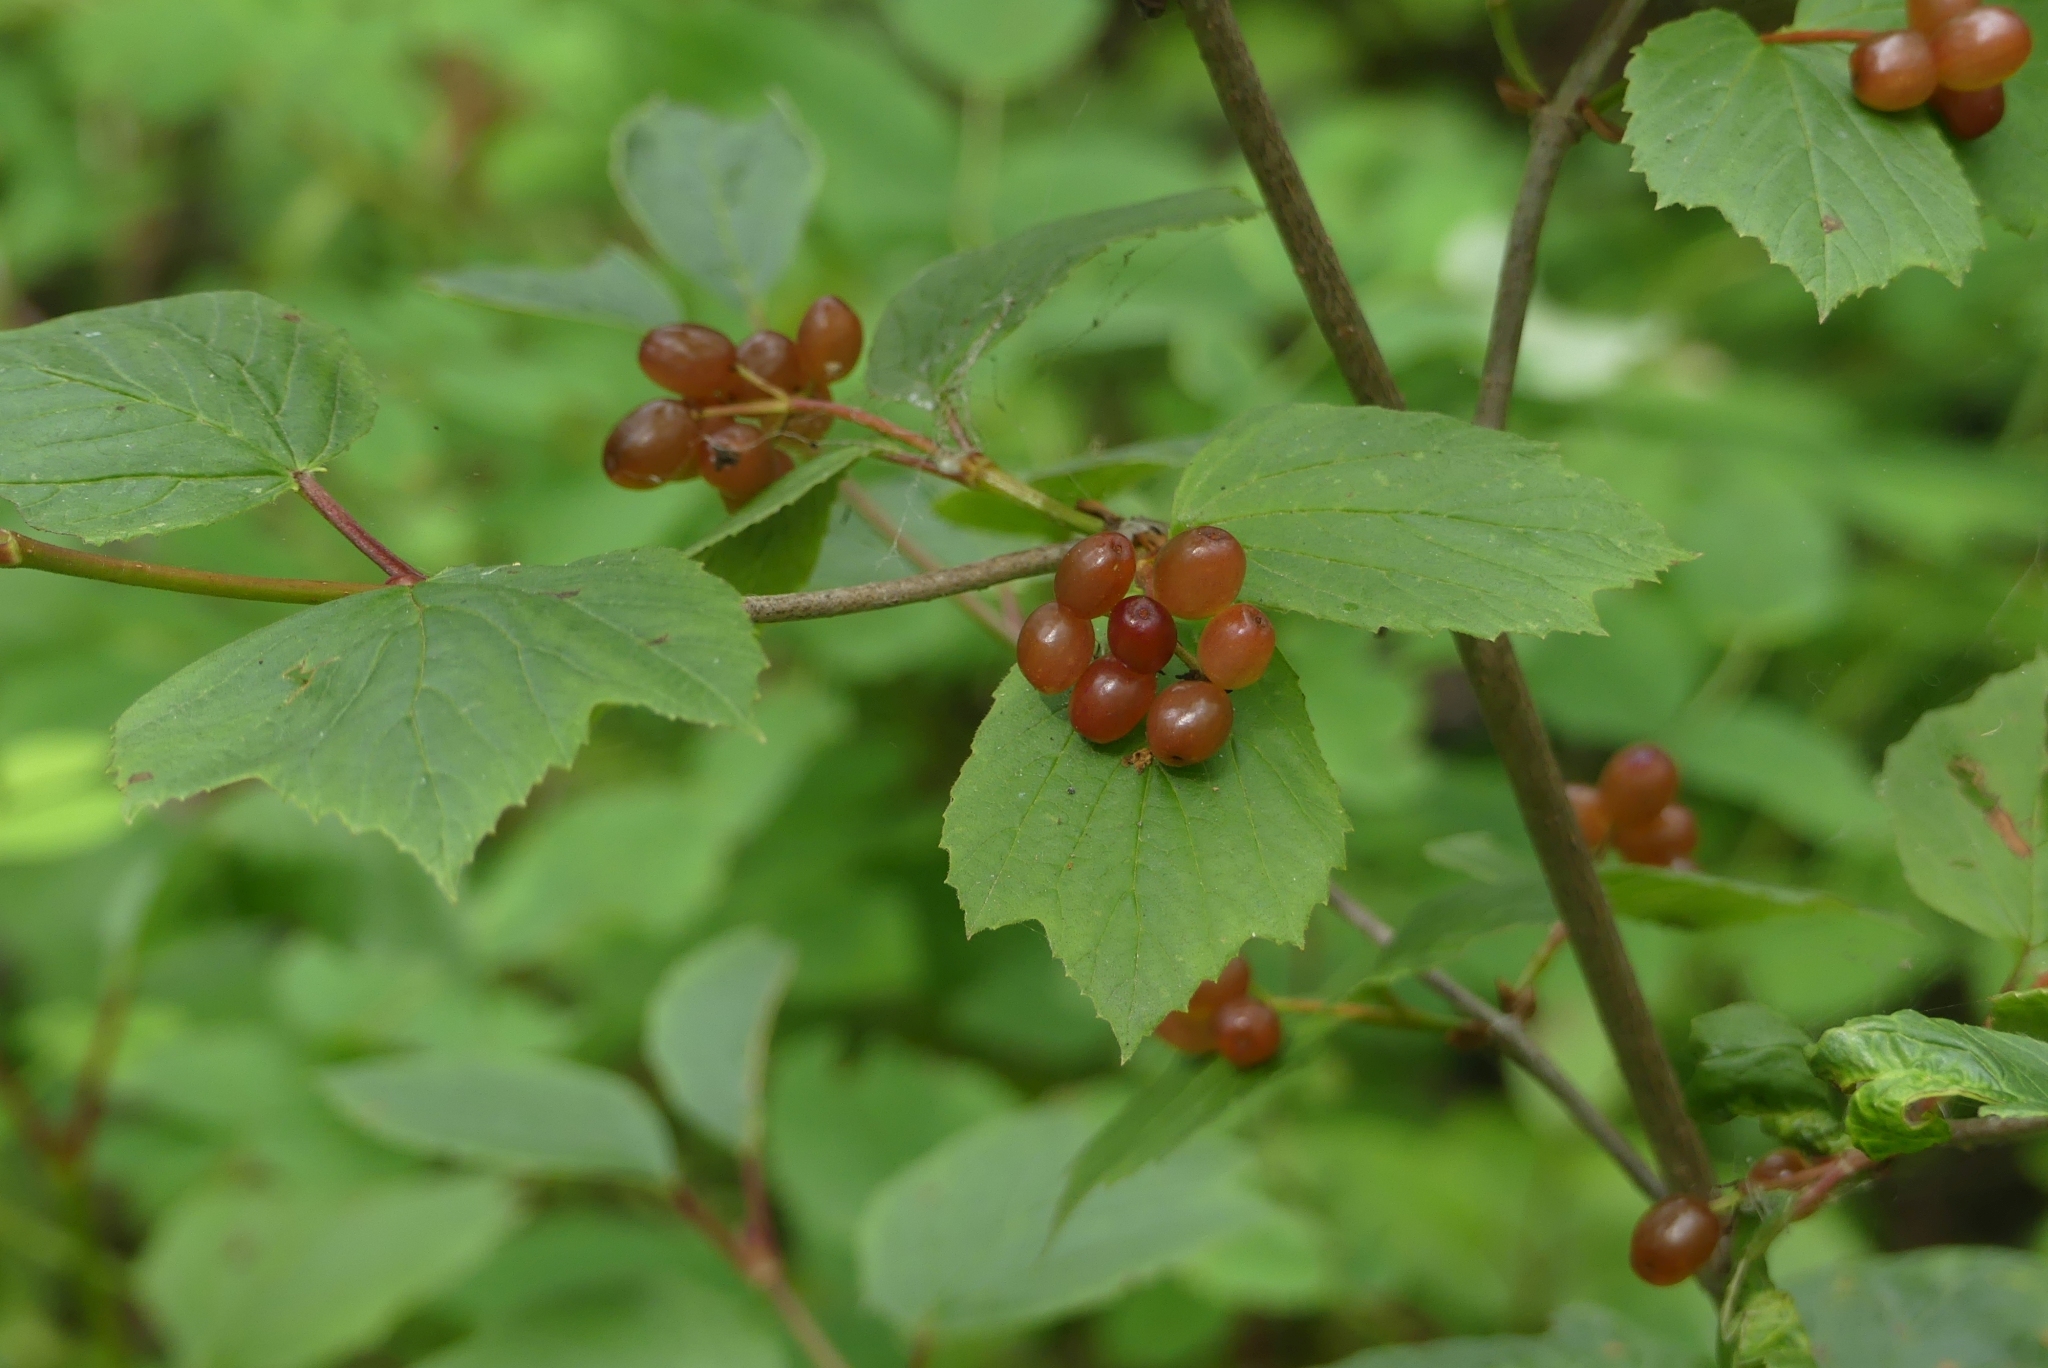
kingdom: Plantae
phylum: Tracheophyta
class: Magnoliopsida
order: Dipsacales
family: Viburnaceae
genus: Viburnum
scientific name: Viburnum edule
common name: Mooseberry
